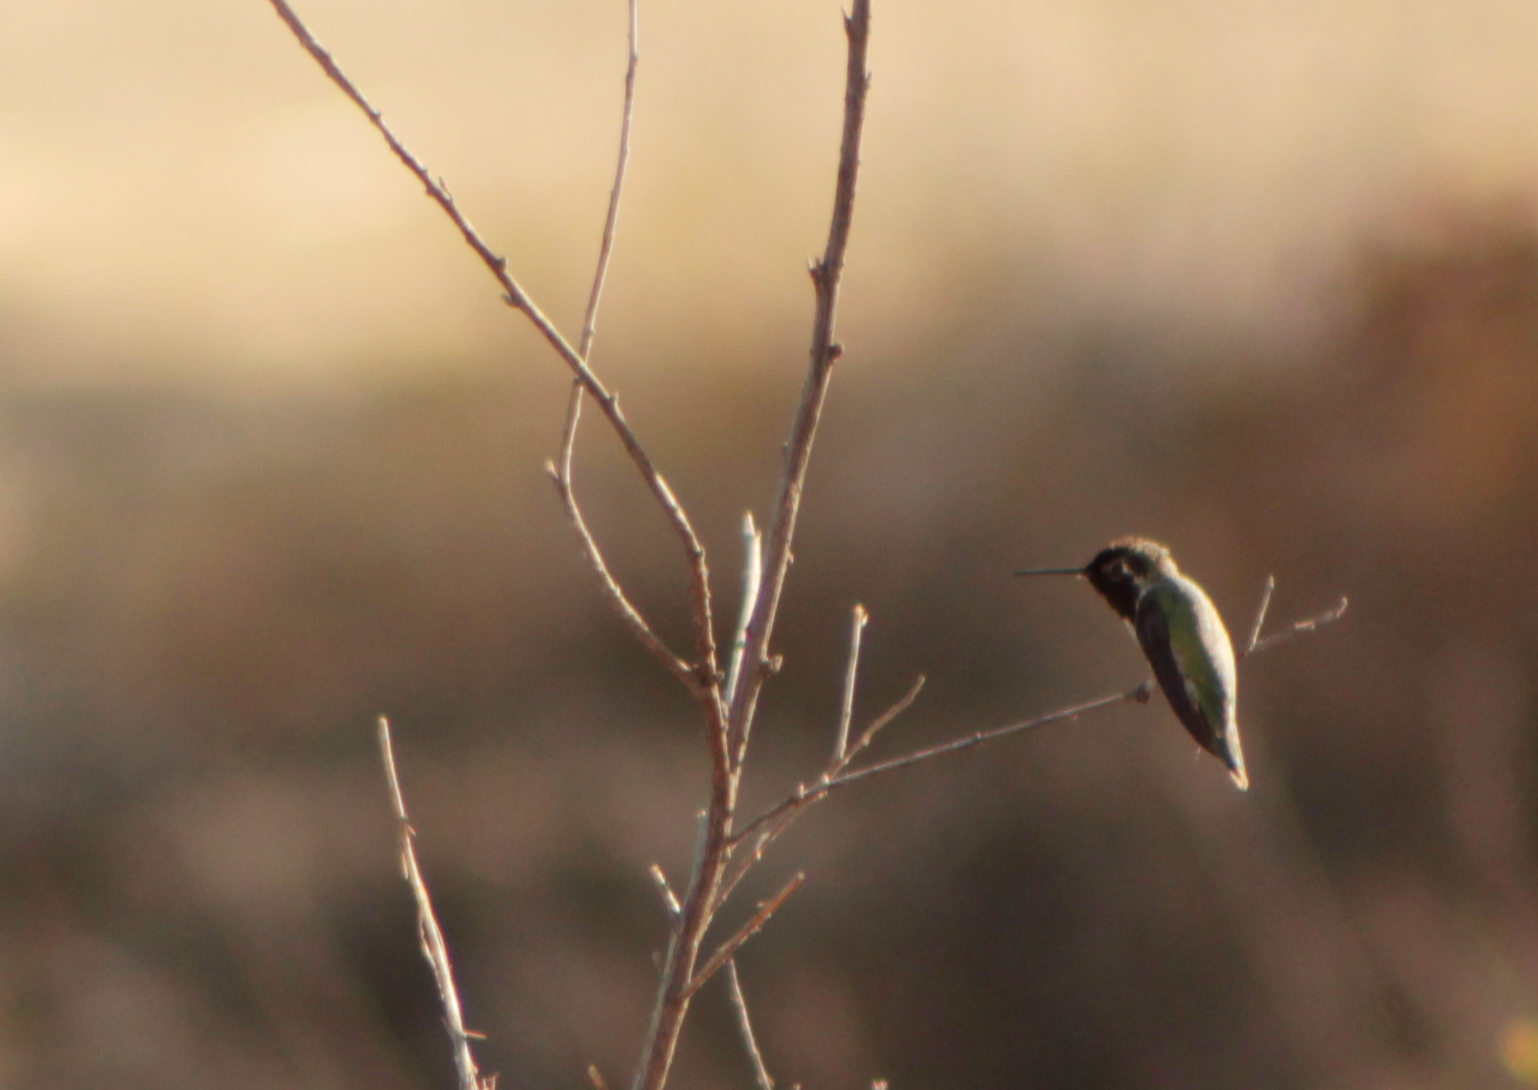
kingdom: Animalia
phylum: Chordata
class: Aves
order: Apodiformes
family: Trochilidae
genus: Calypte
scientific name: Calypte anna
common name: Anna's hummingbird
